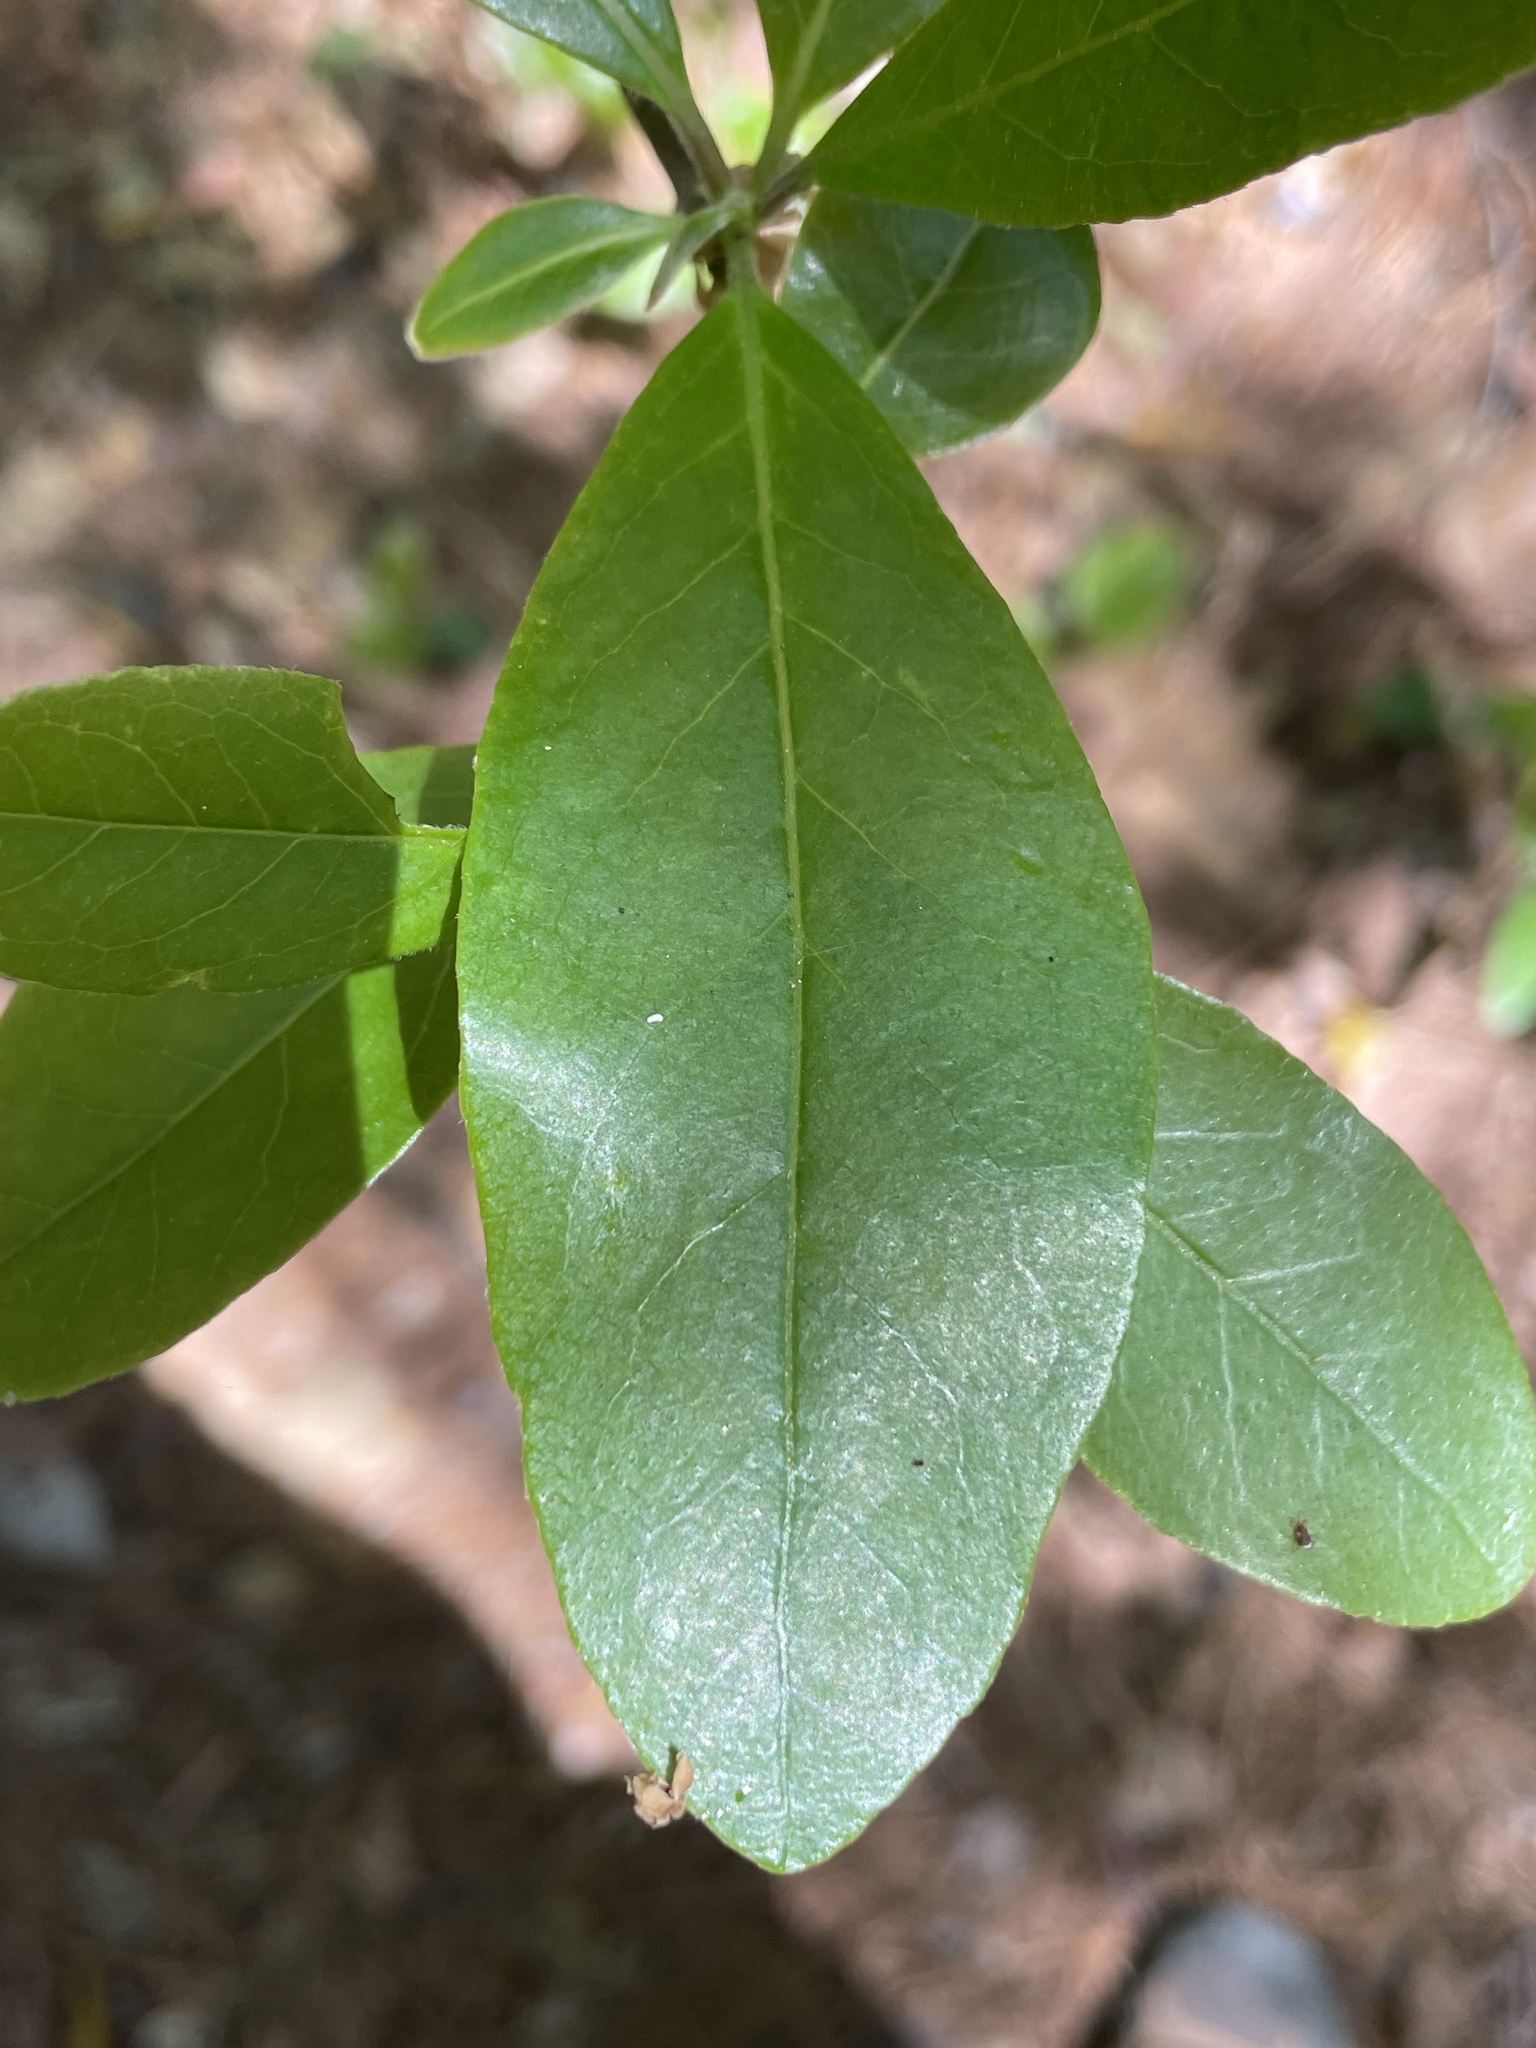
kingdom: Plantae
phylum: Tracheophyta
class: Magnoliopsida
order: Ericales
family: Symplocaceae
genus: Symplocos
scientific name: Symplocos tinctoria
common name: Horse-sugar
